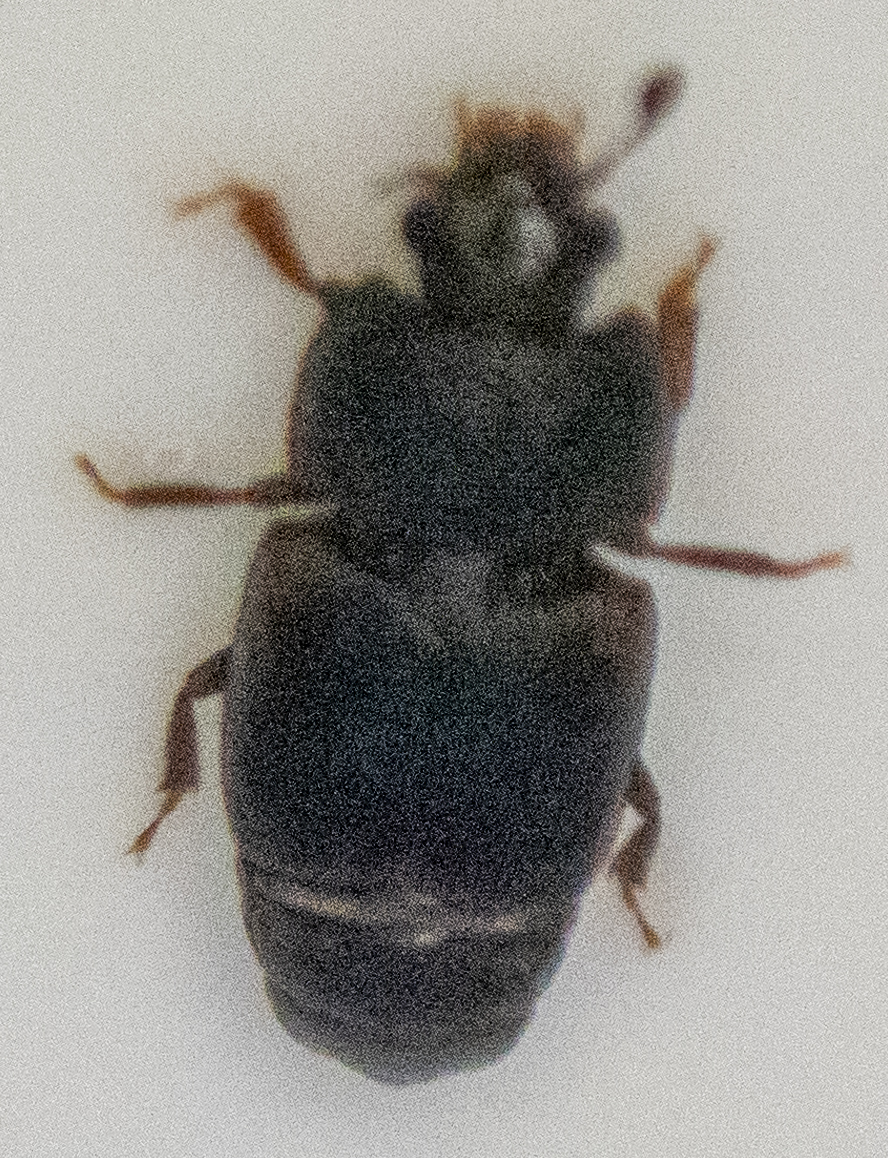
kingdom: Animalia
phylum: Arthropoda
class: Insecta
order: Coleoptera
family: Nitidulidae
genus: Carpophilus
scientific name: Carpophilus
